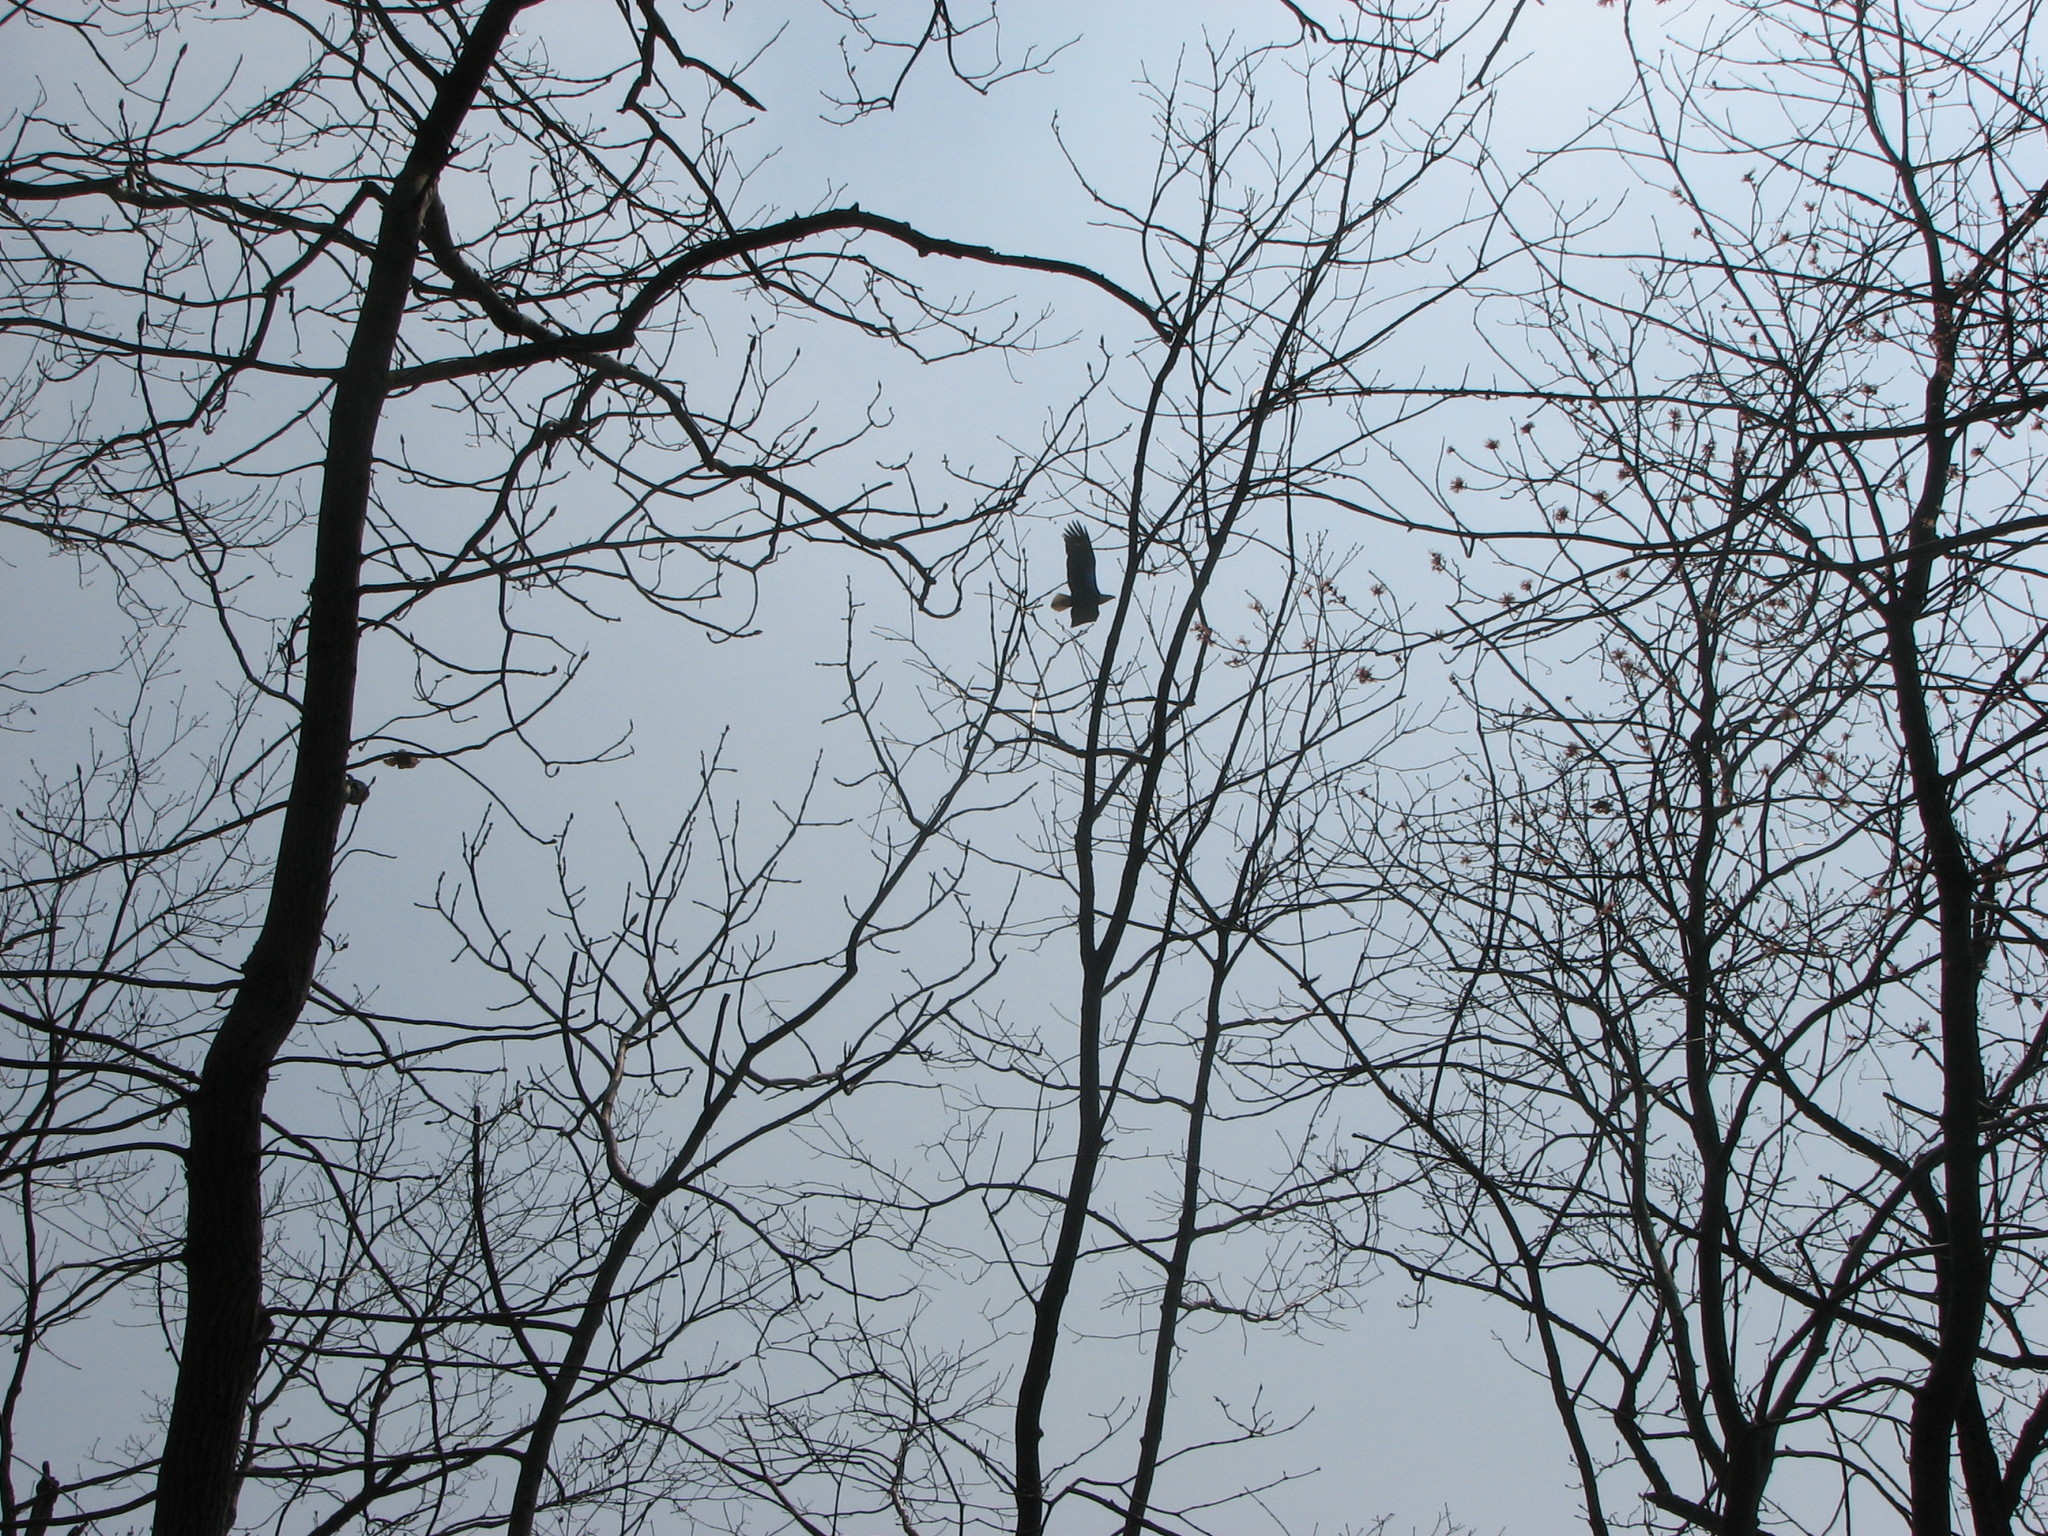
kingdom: Animalia
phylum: Chordata
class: Aves
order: Accipitriformes
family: Accipitridae
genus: Haliaeetus
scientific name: Haliaeetus leucocephalus
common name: Bald eagle
